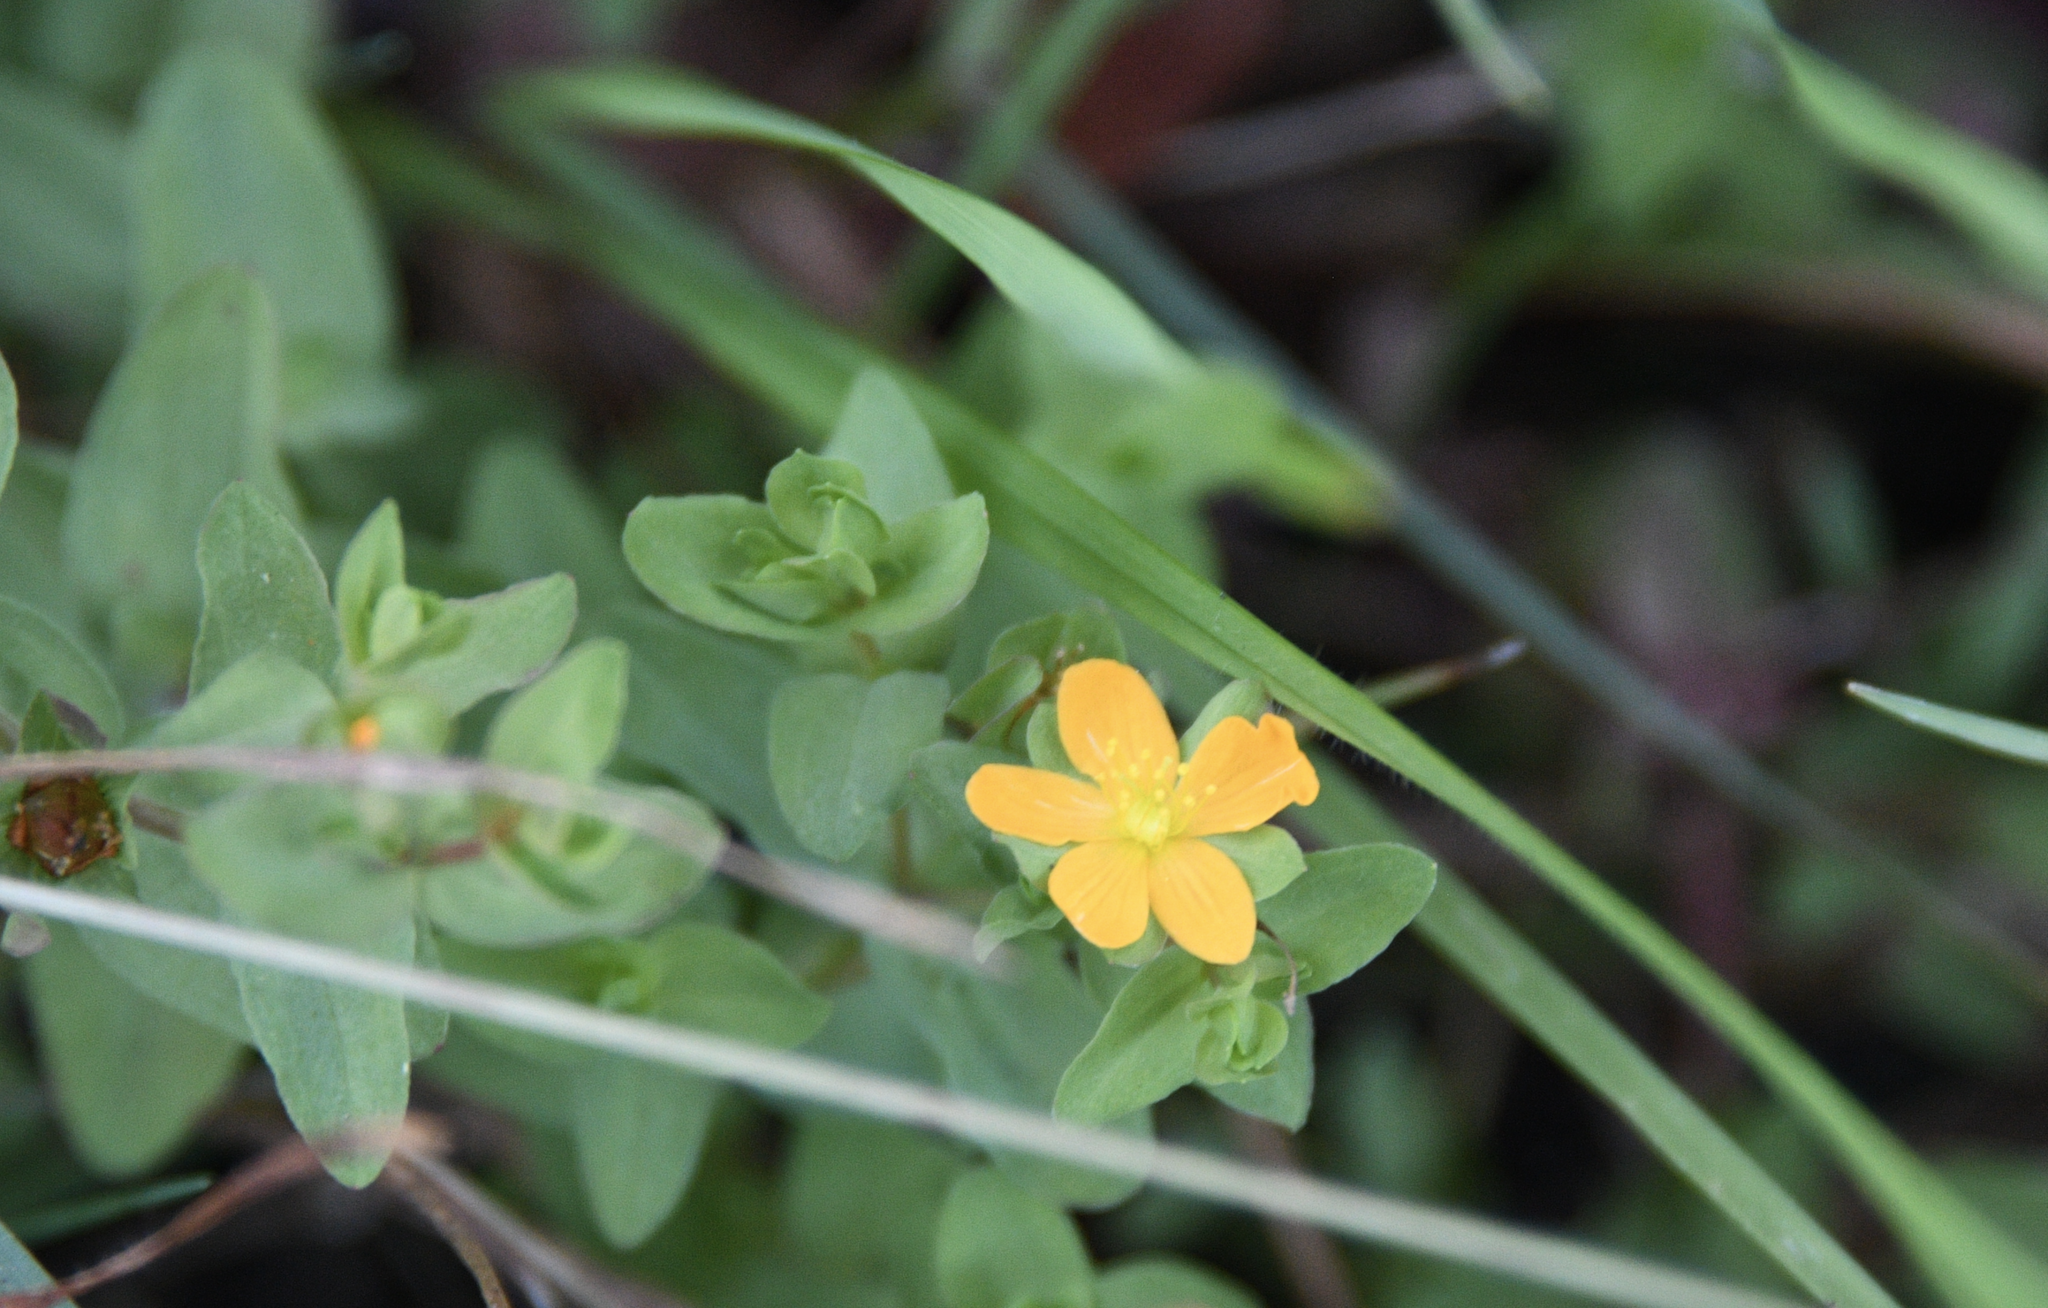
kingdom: Plantae
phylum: Tracheophyta
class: Magnoliopsida
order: Malpighiales
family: Hypericaceae
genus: Hypericum
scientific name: Hypericum anagalloides
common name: Bog st. john's-wort
